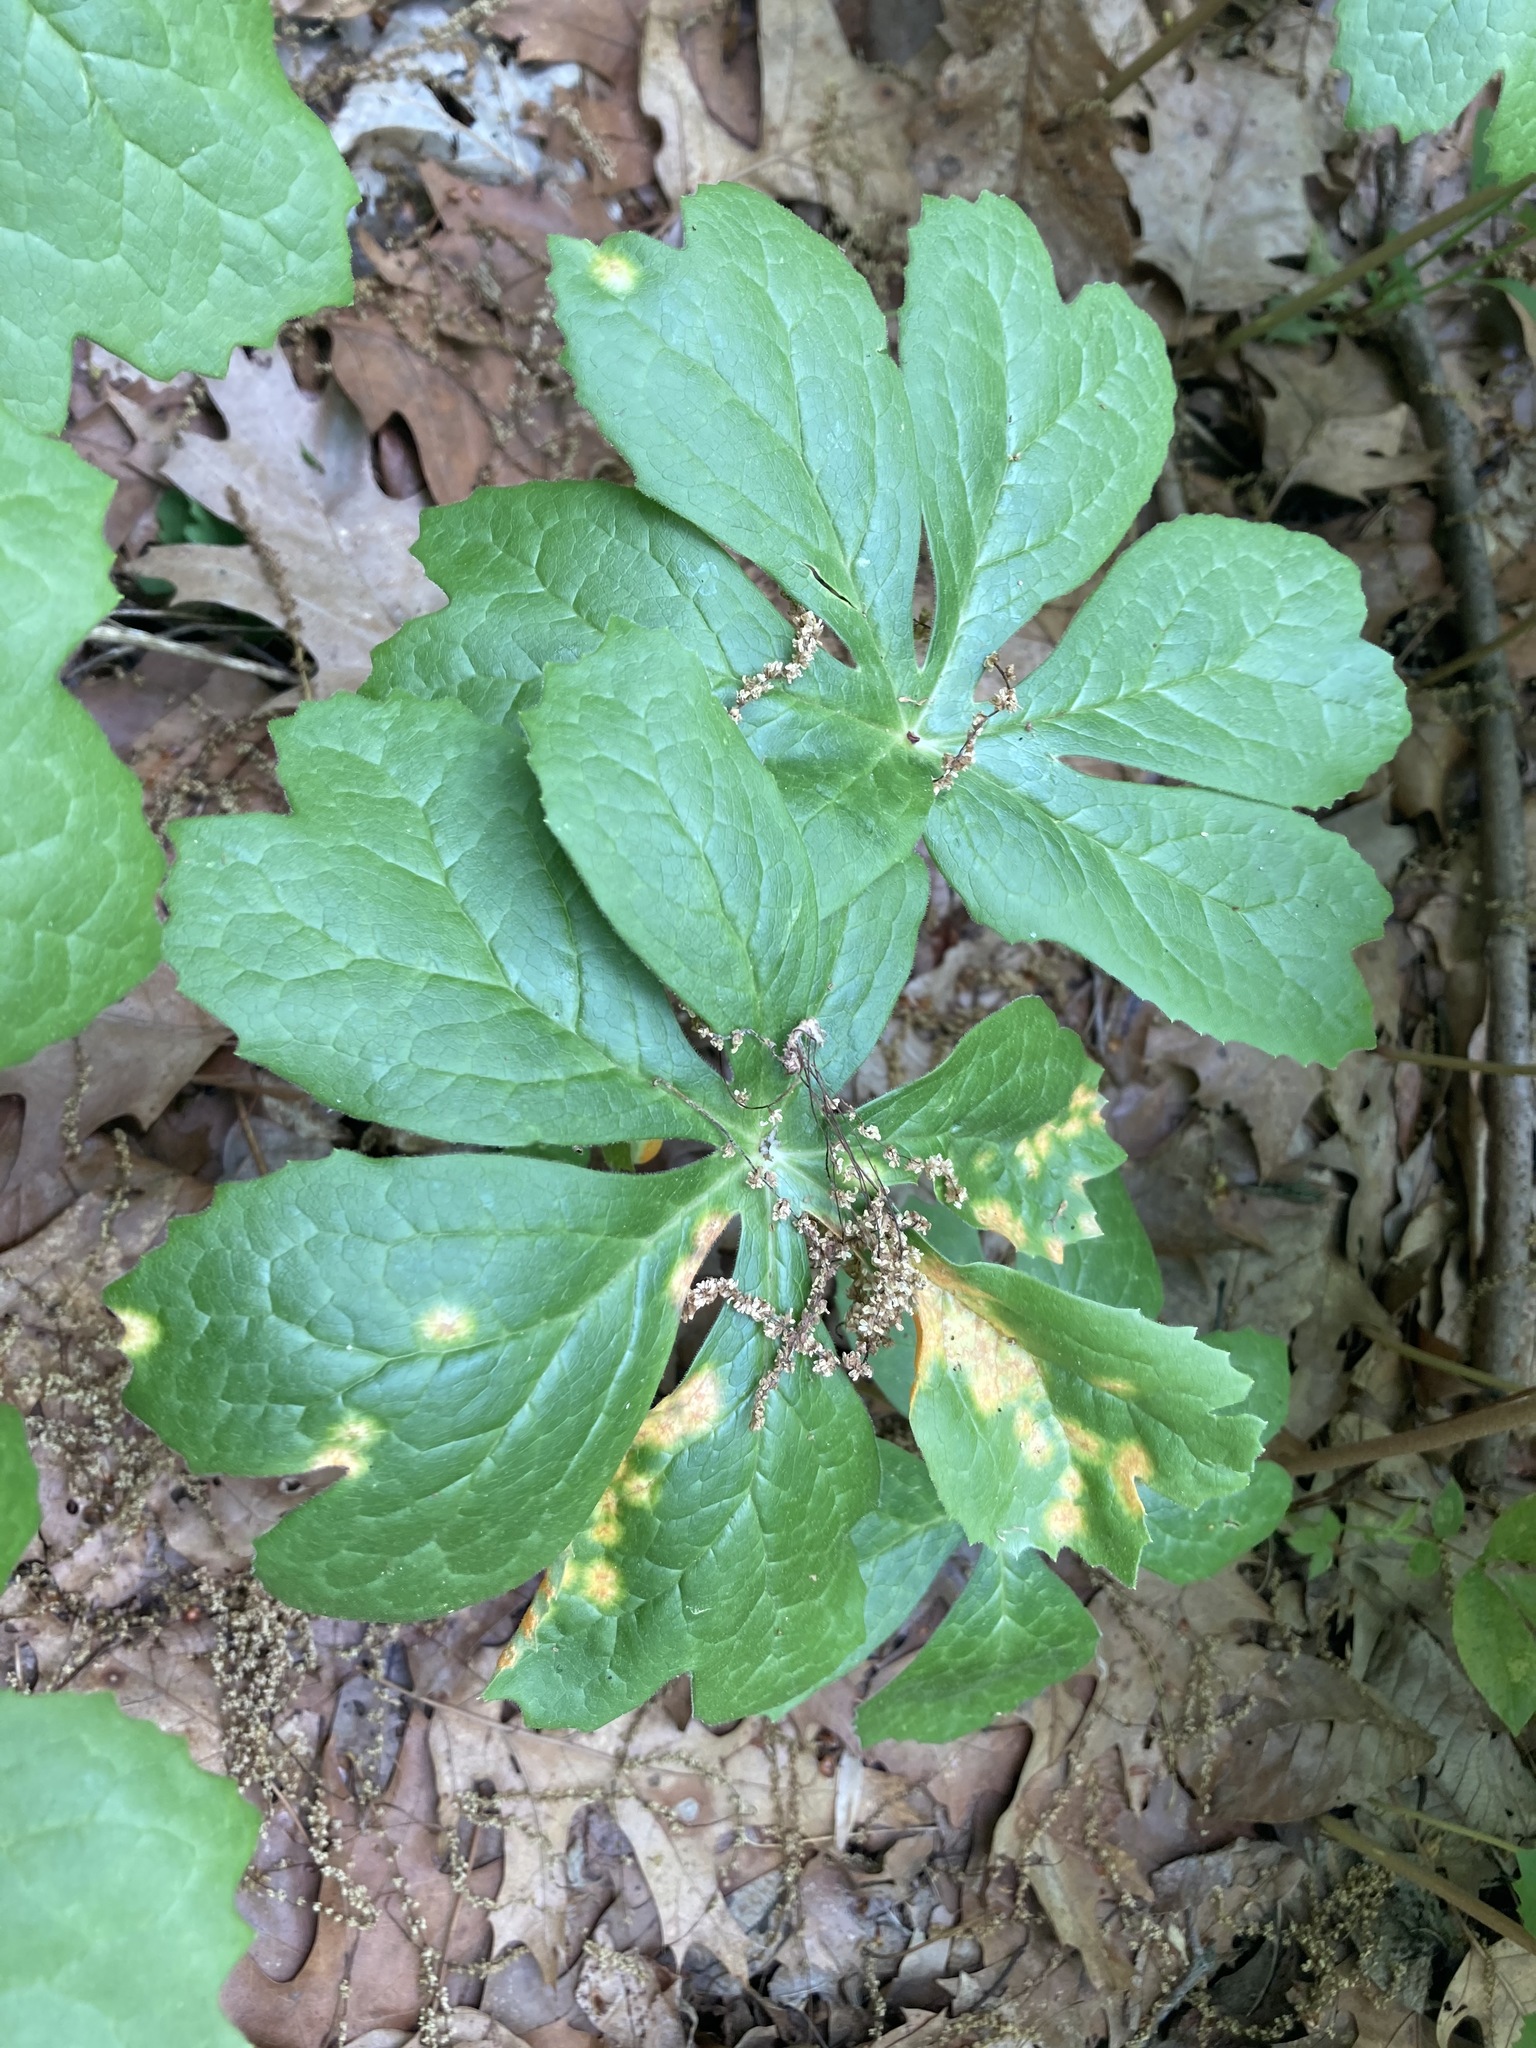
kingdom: Fungi
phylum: Basidiomycota
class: Pucciniomycetes
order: Pucciniales
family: Pucciniaceae
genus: Puccinia
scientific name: Puccinia podophylli
